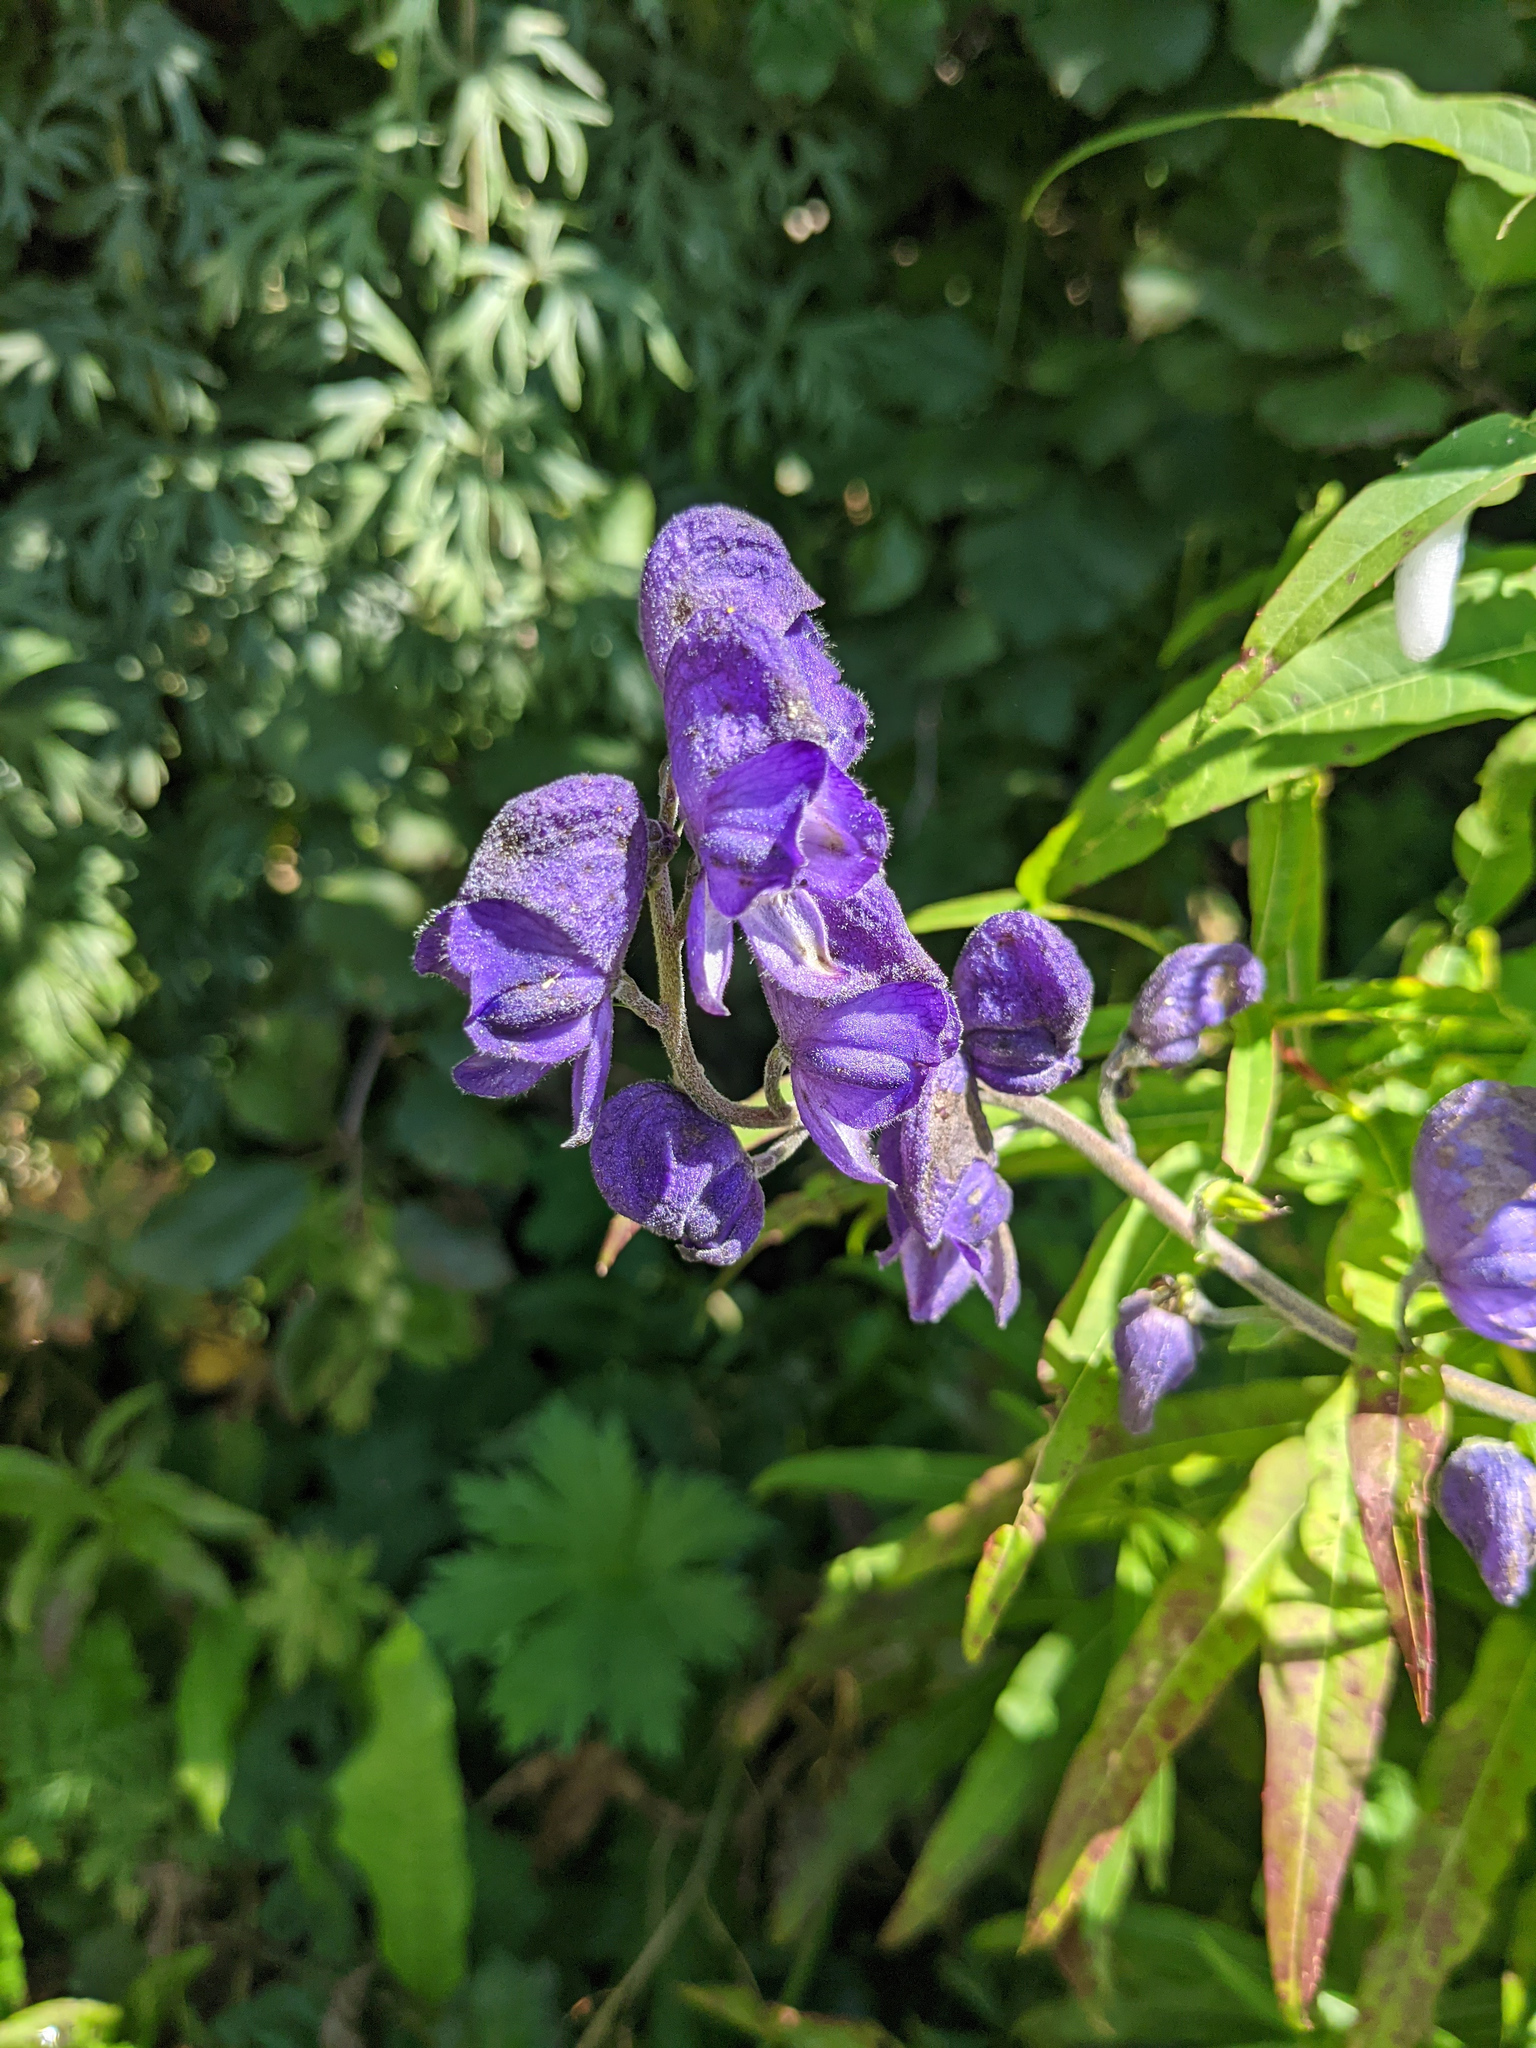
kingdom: Plantae
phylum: Tracheophyta
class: Magnoliopsida
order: Ranunculales
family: Ranunculaceae
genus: Aconitum
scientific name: Aconitum napellus
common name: Garden monkshood
